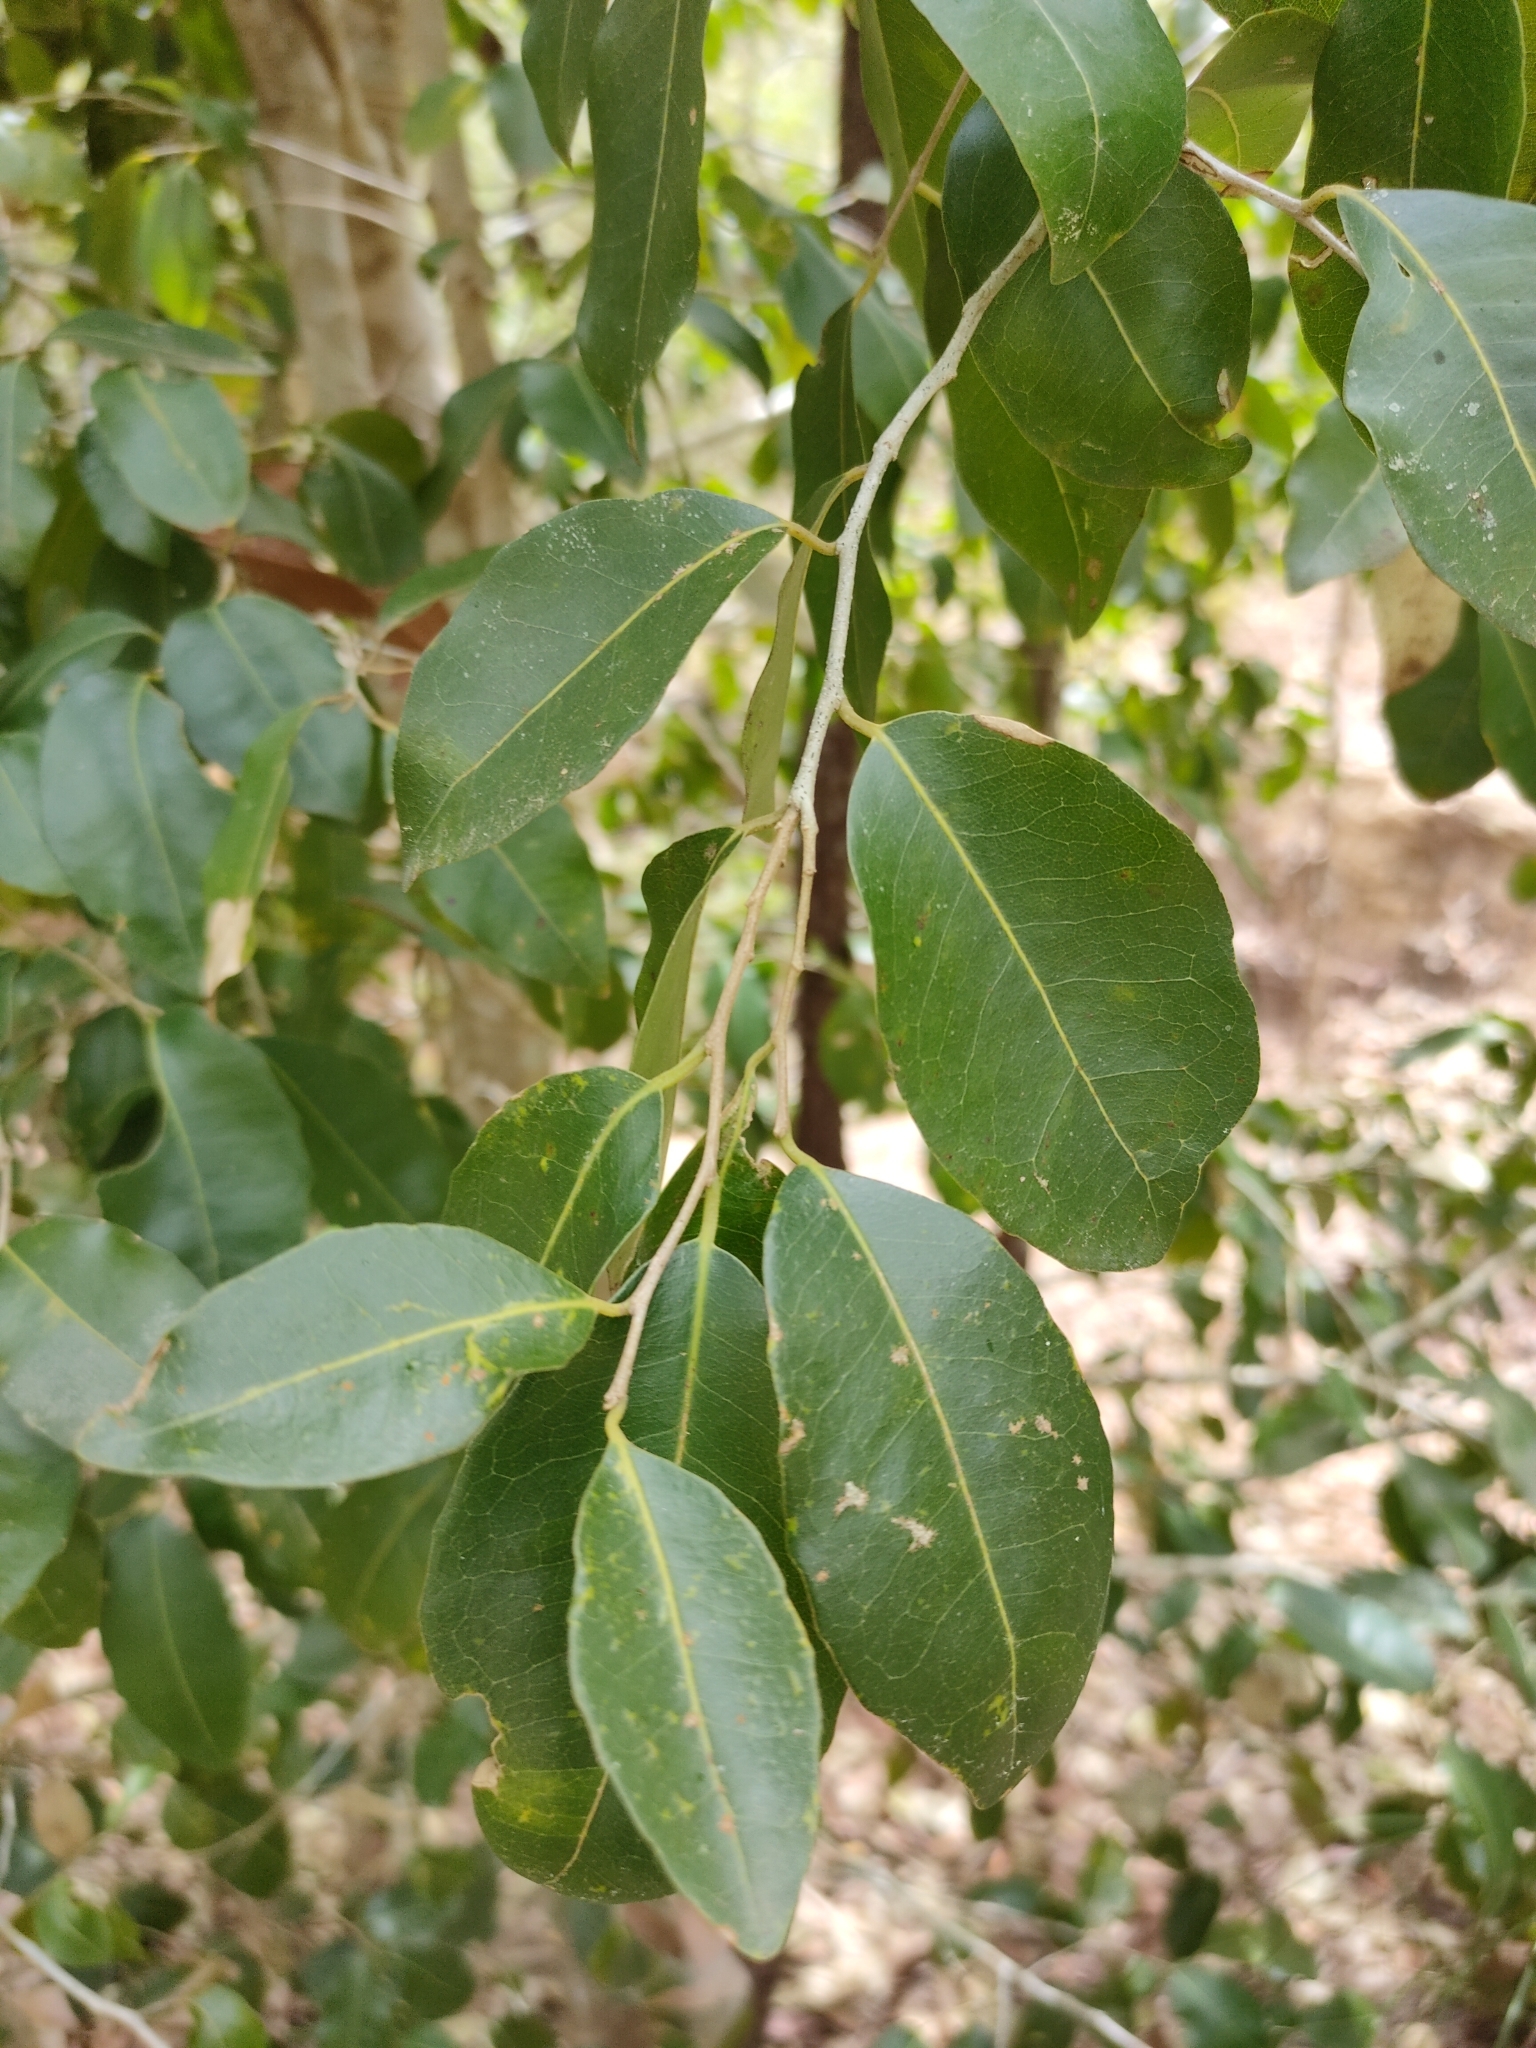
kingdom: Plantae
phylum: Tracheophyta
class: Magnoliopsida
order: Malpighiales
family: Putranjivaceae
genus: Drypetes
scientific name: Drypetes deplanchei
